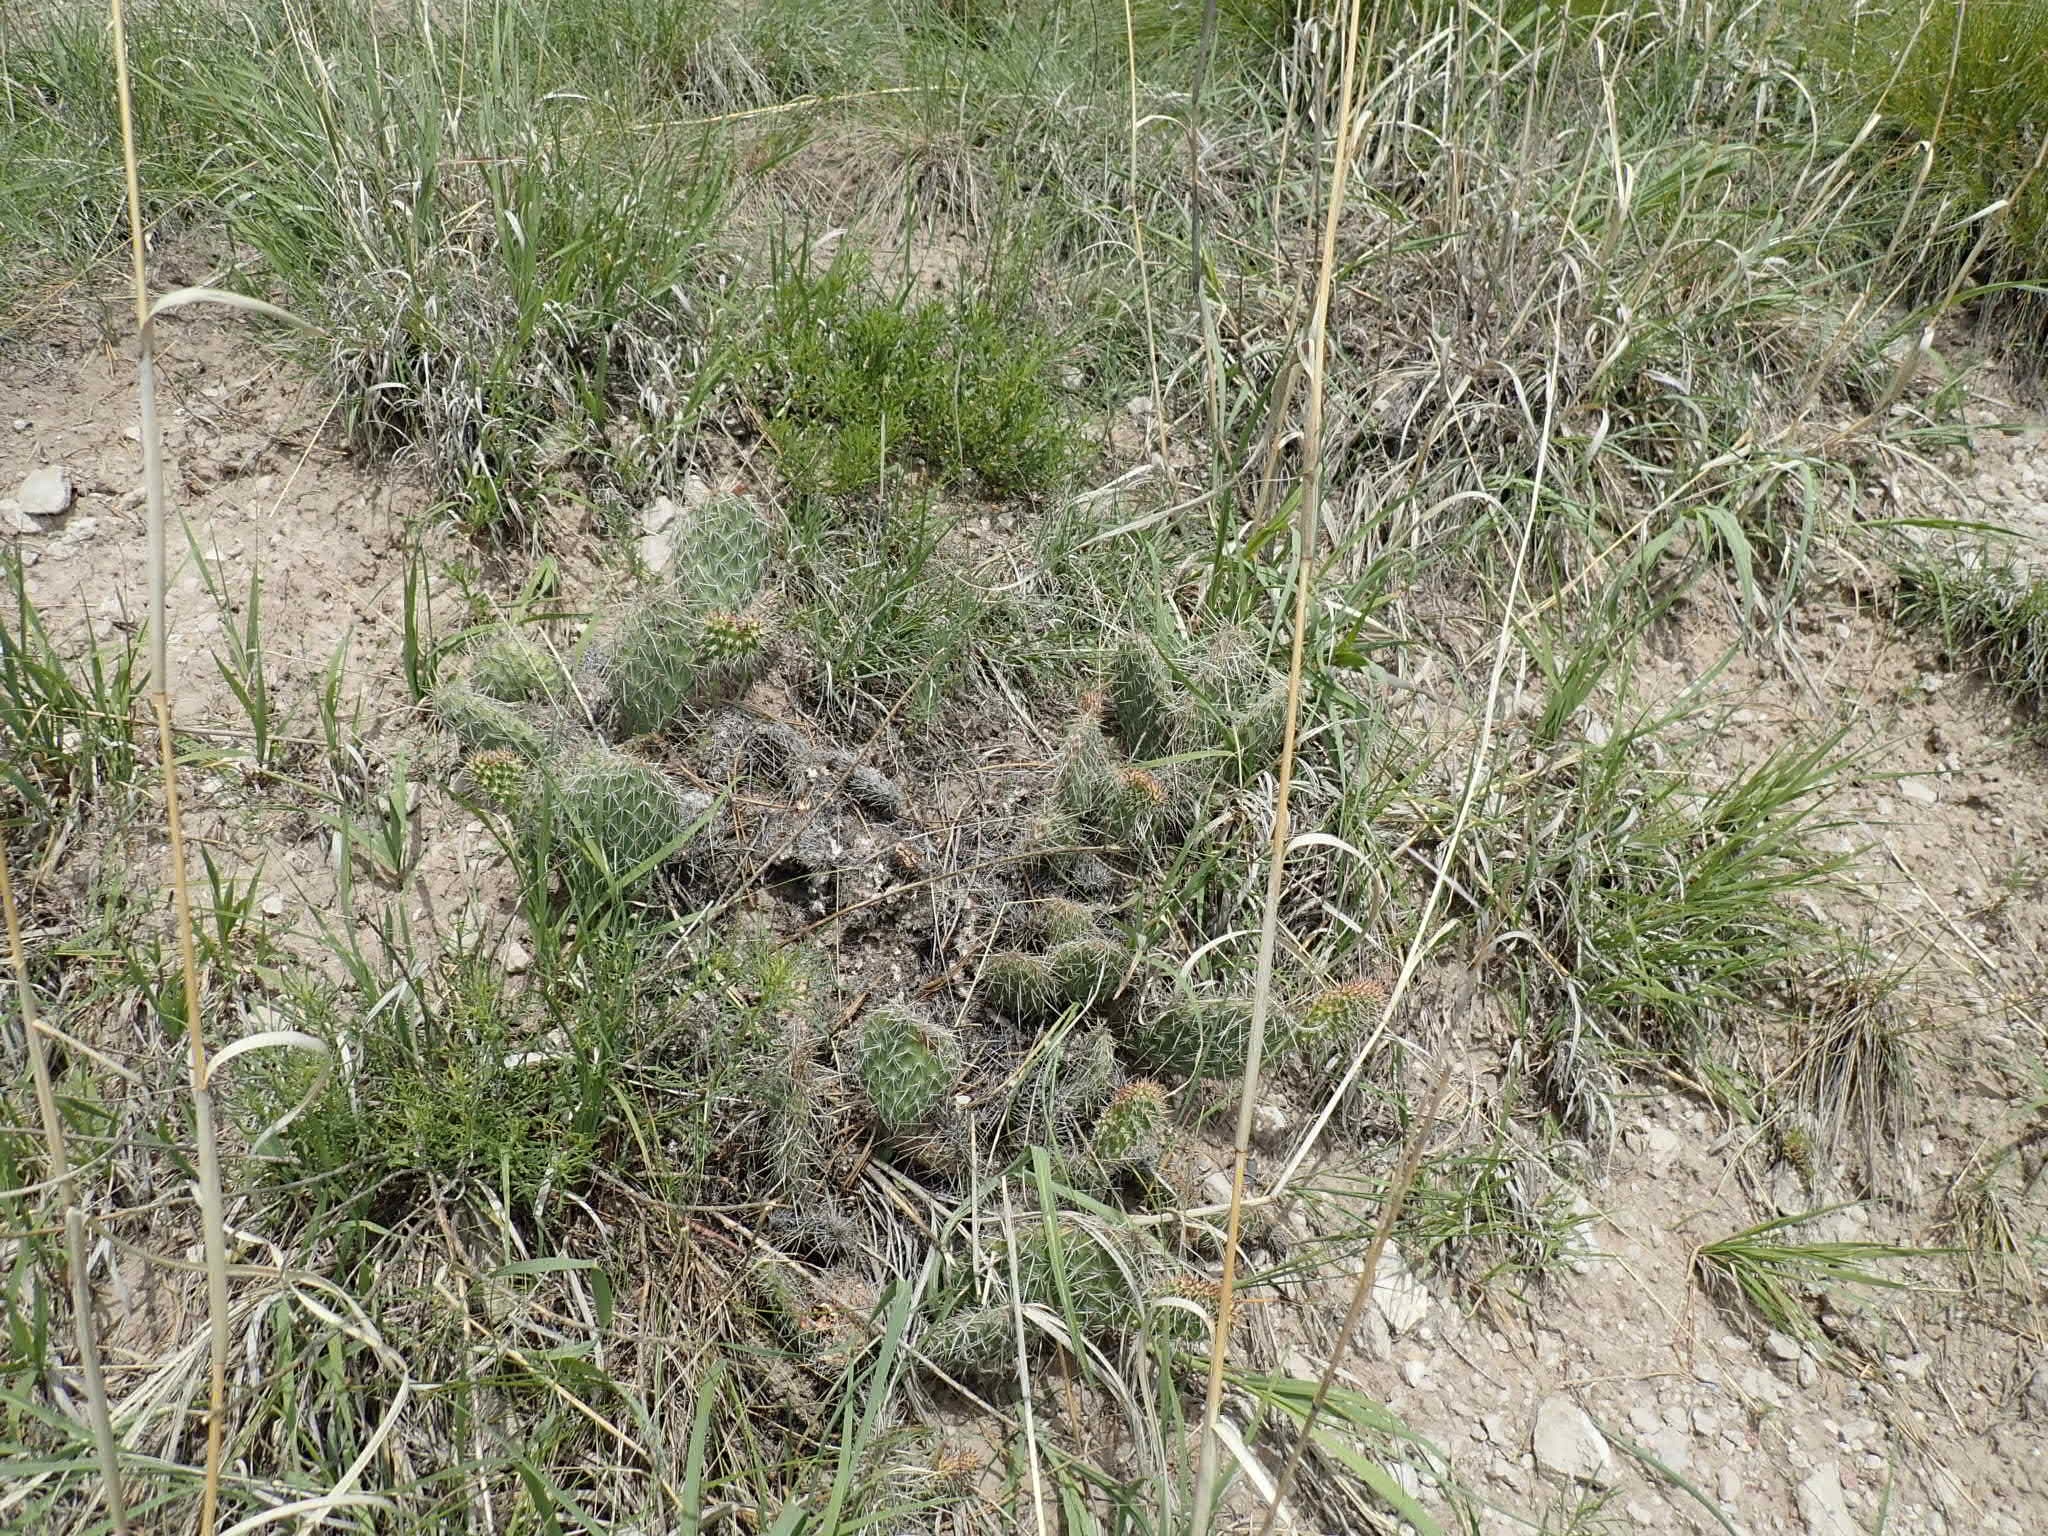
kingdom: Plantae
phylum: Tracheophyta
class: Magnoliopsida
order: Caryophyllales
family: Cactaceae
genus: Opuntia
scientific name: Opuntia polyacantha
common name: Plains prickly-pear
